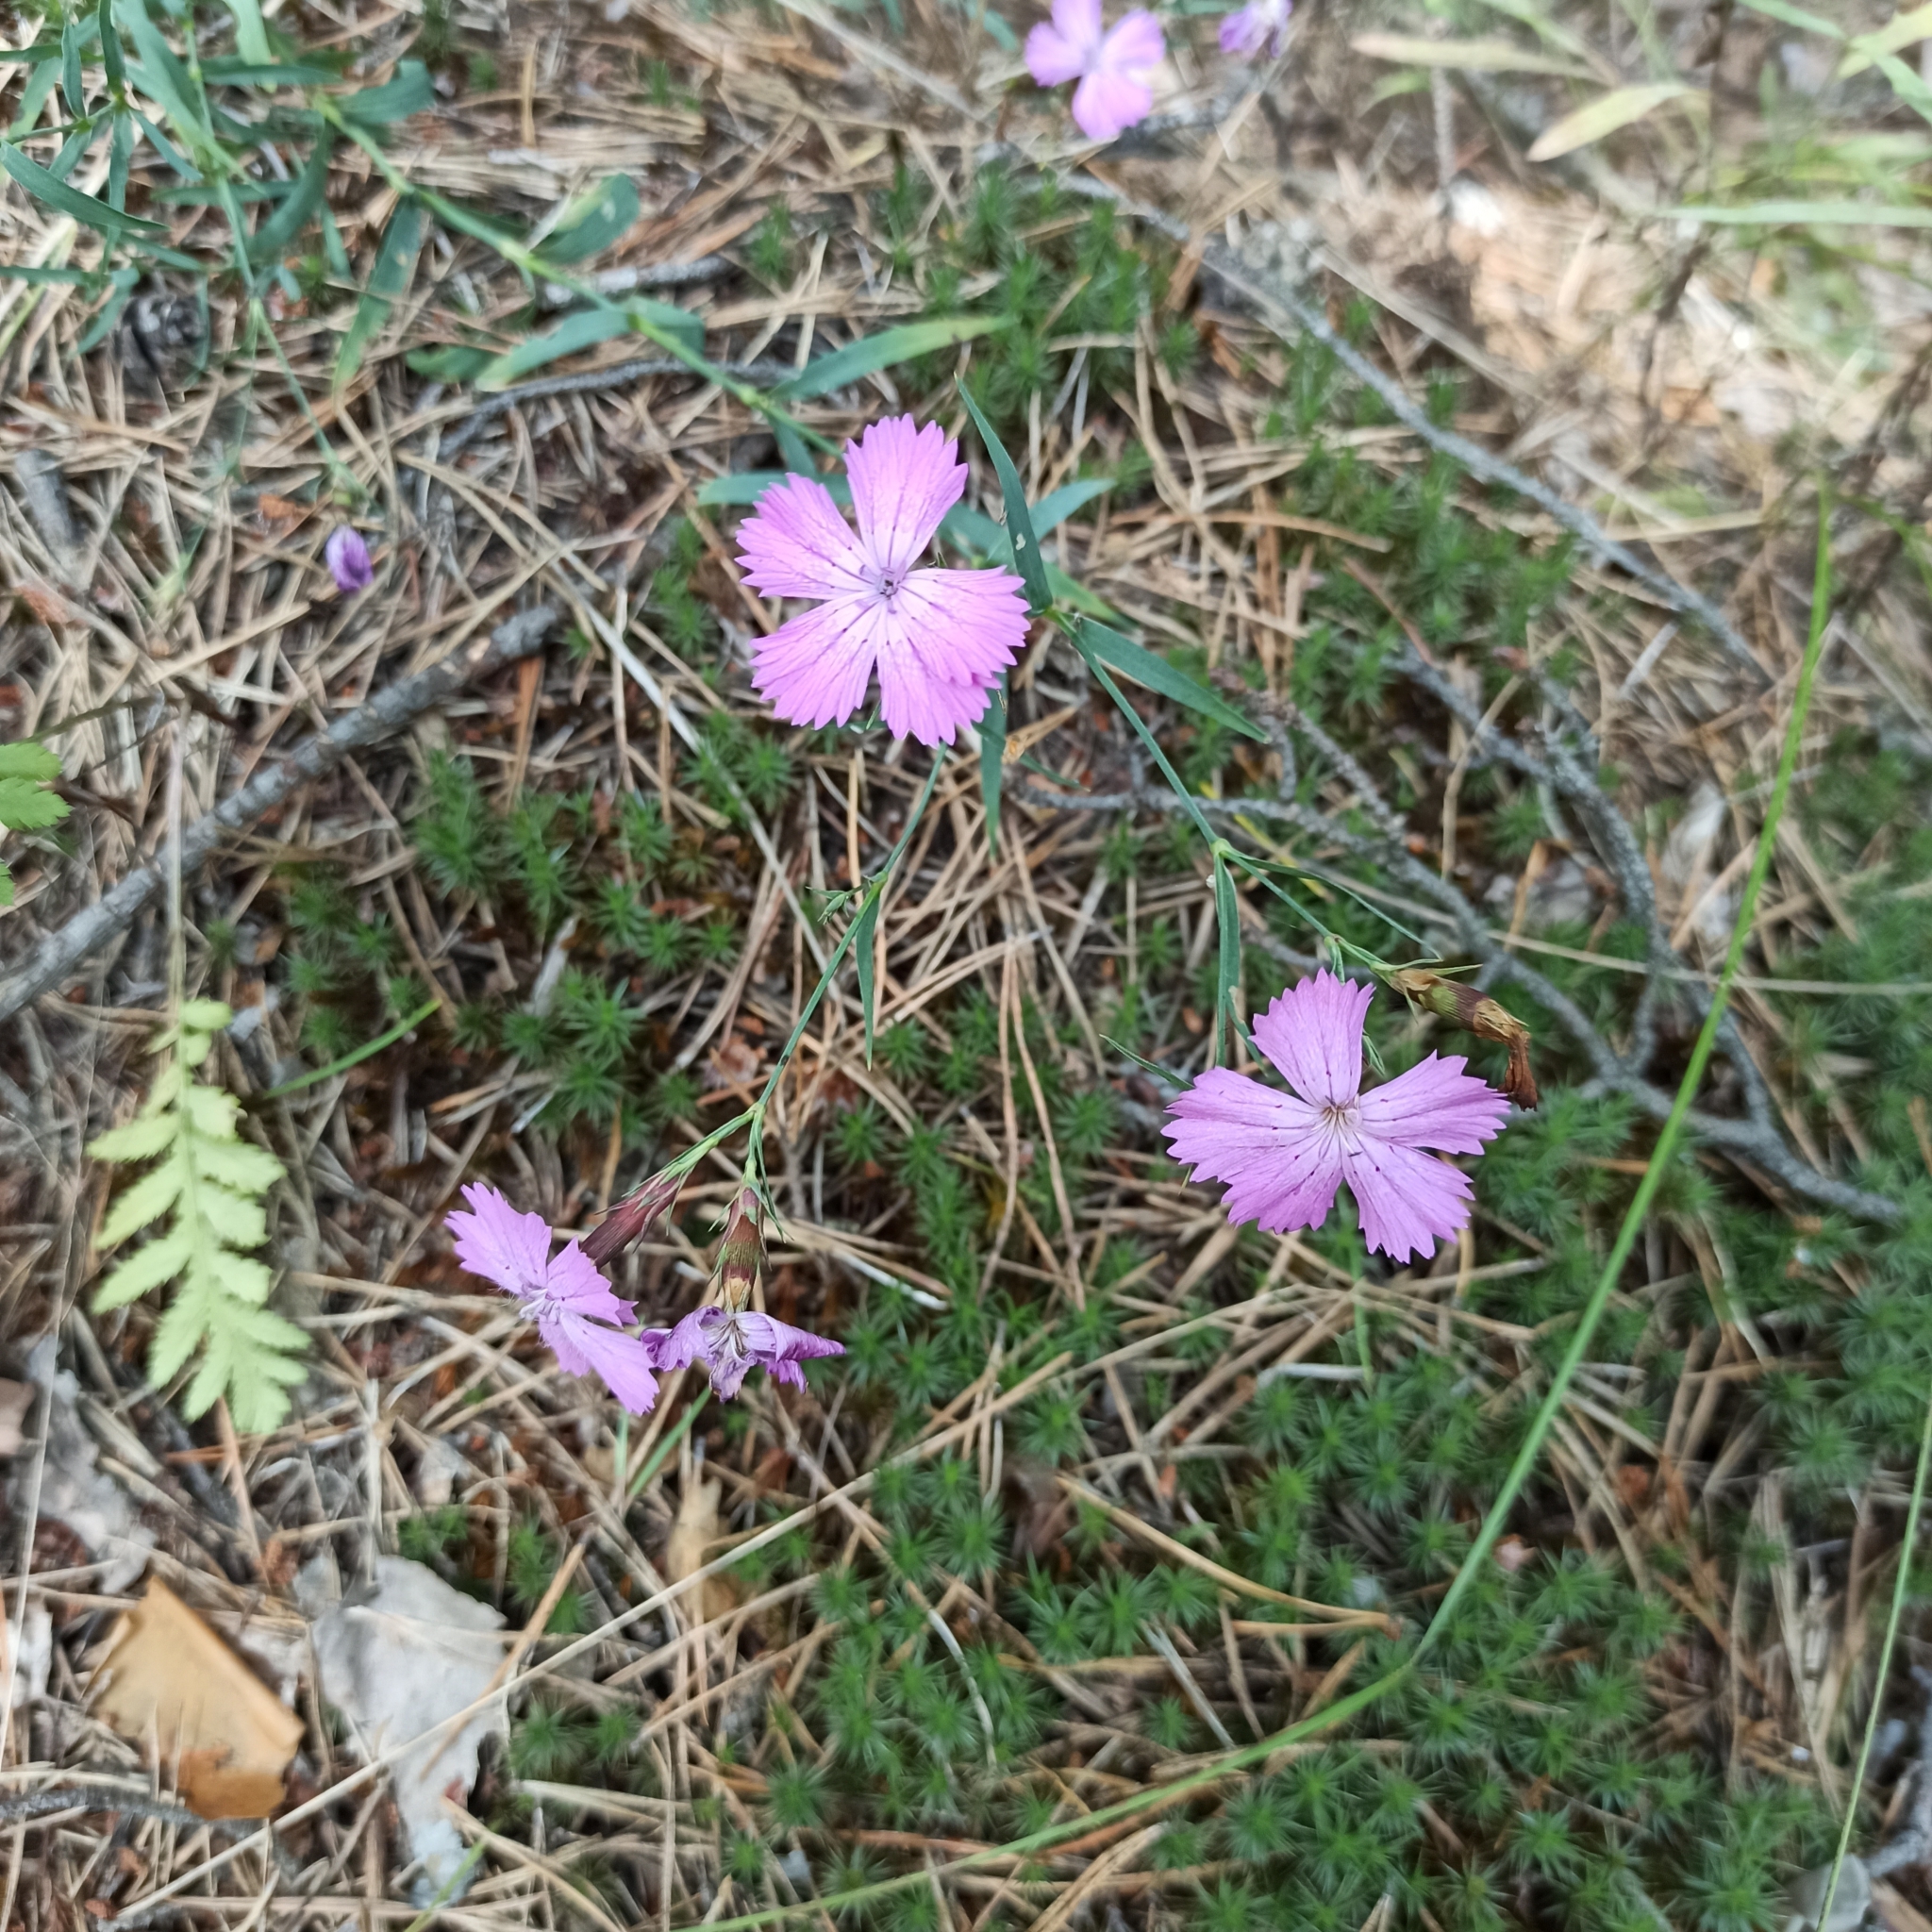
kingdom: Plantae
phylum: Tracheophyta
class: Magnoliopsida
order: Caryophyllales
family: Caryophyllaceae
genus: Dianthus
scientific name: Dianthus chinensis
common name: Rainbow pink
